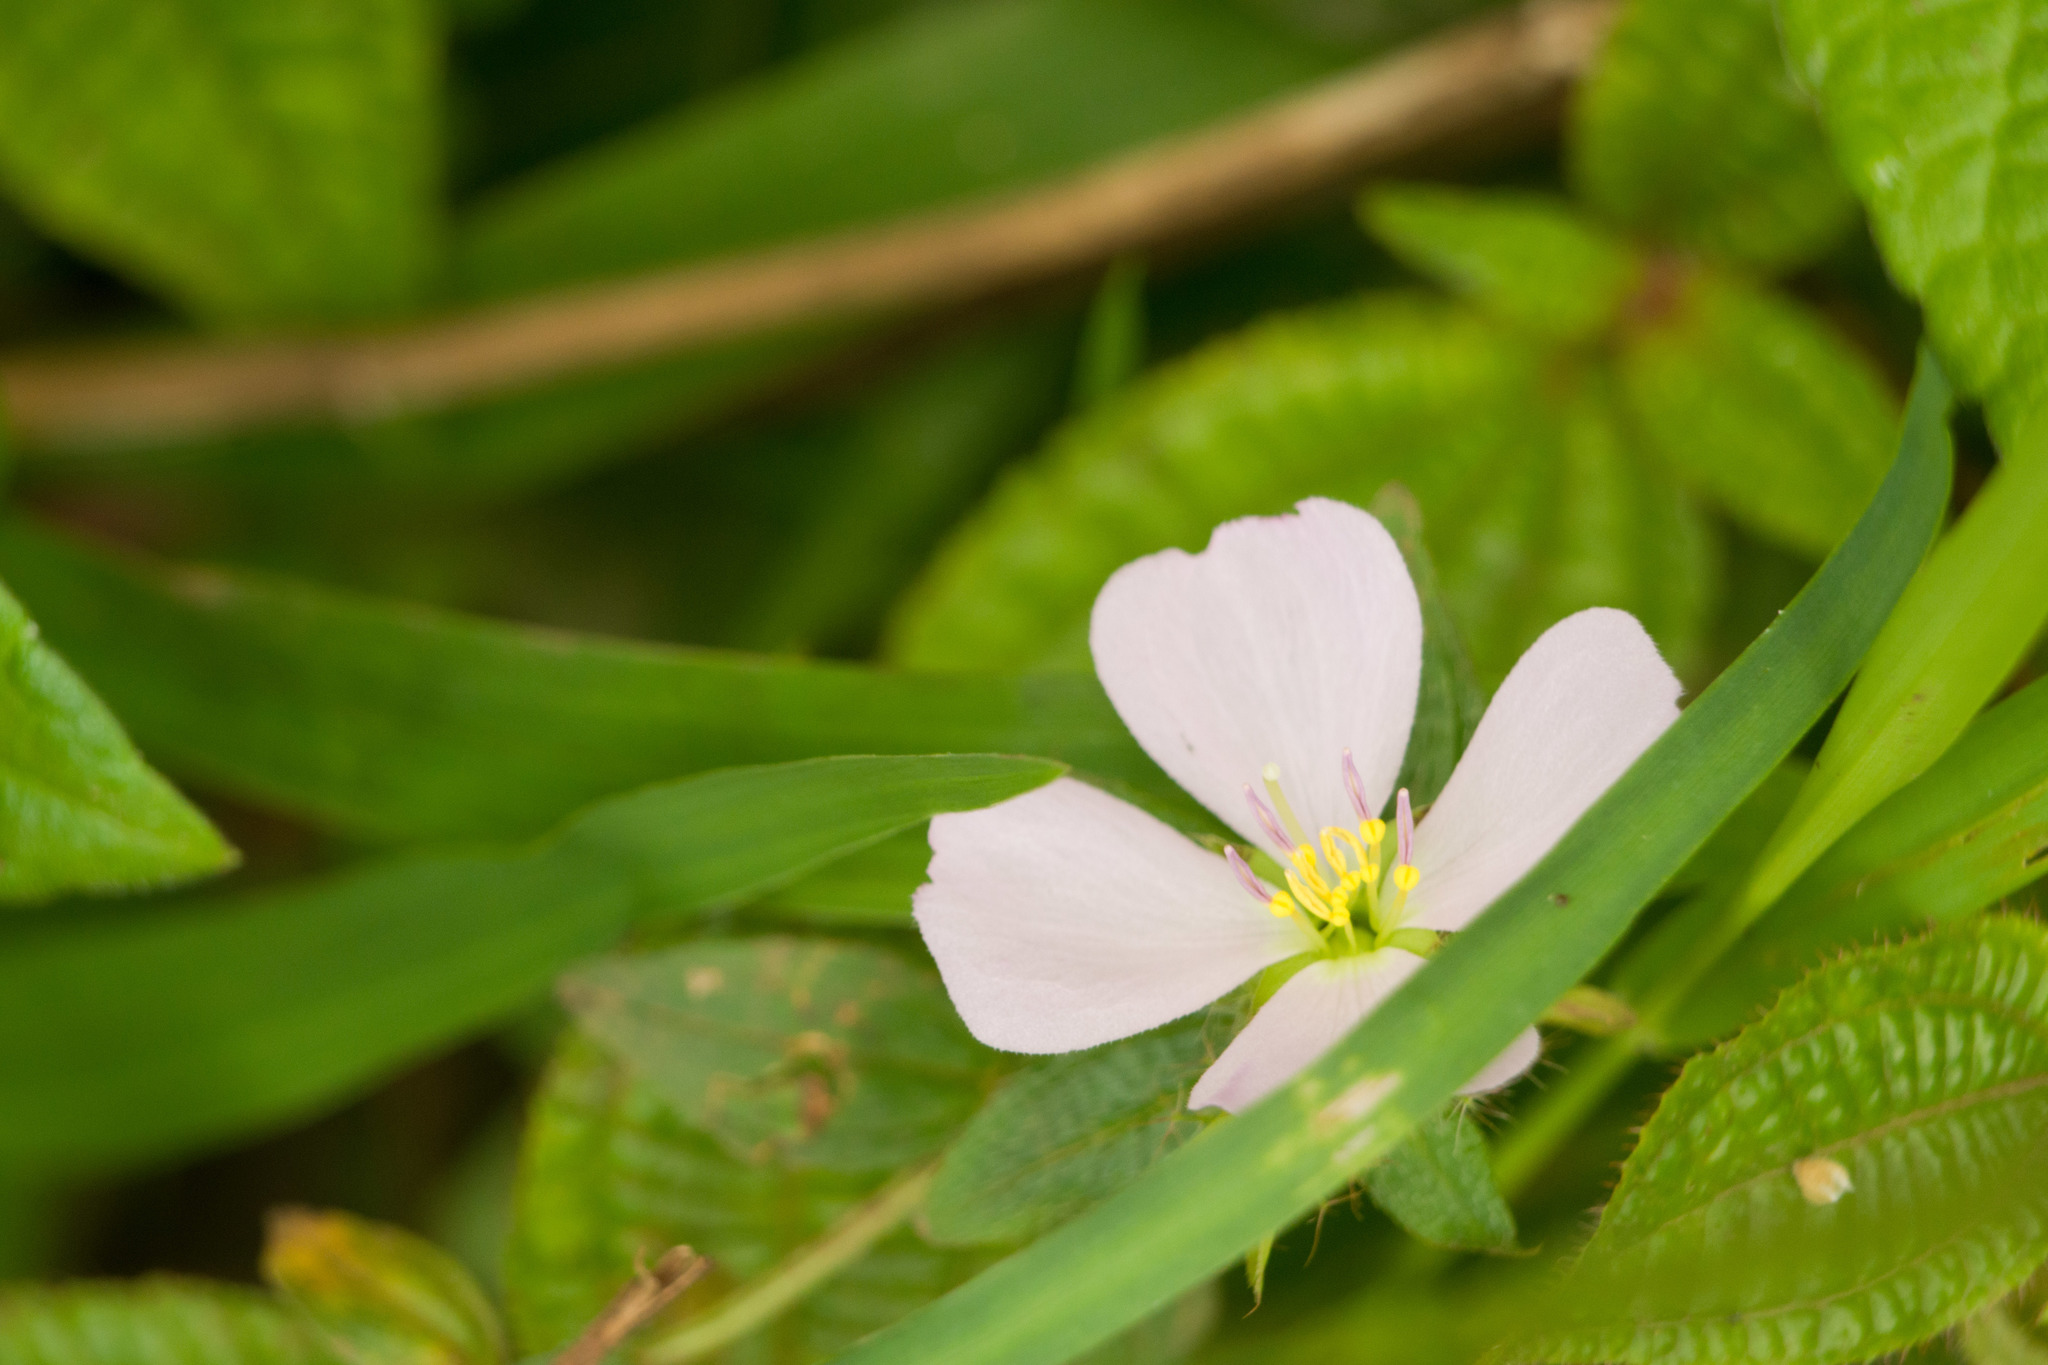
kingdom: Plantae
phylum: Tracheophyta
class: Magnoliopsida
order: Myrtales
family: Melastomataceae
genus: Pterolepis
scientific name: Pterolepis glomerata
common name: False meadowbeauty
